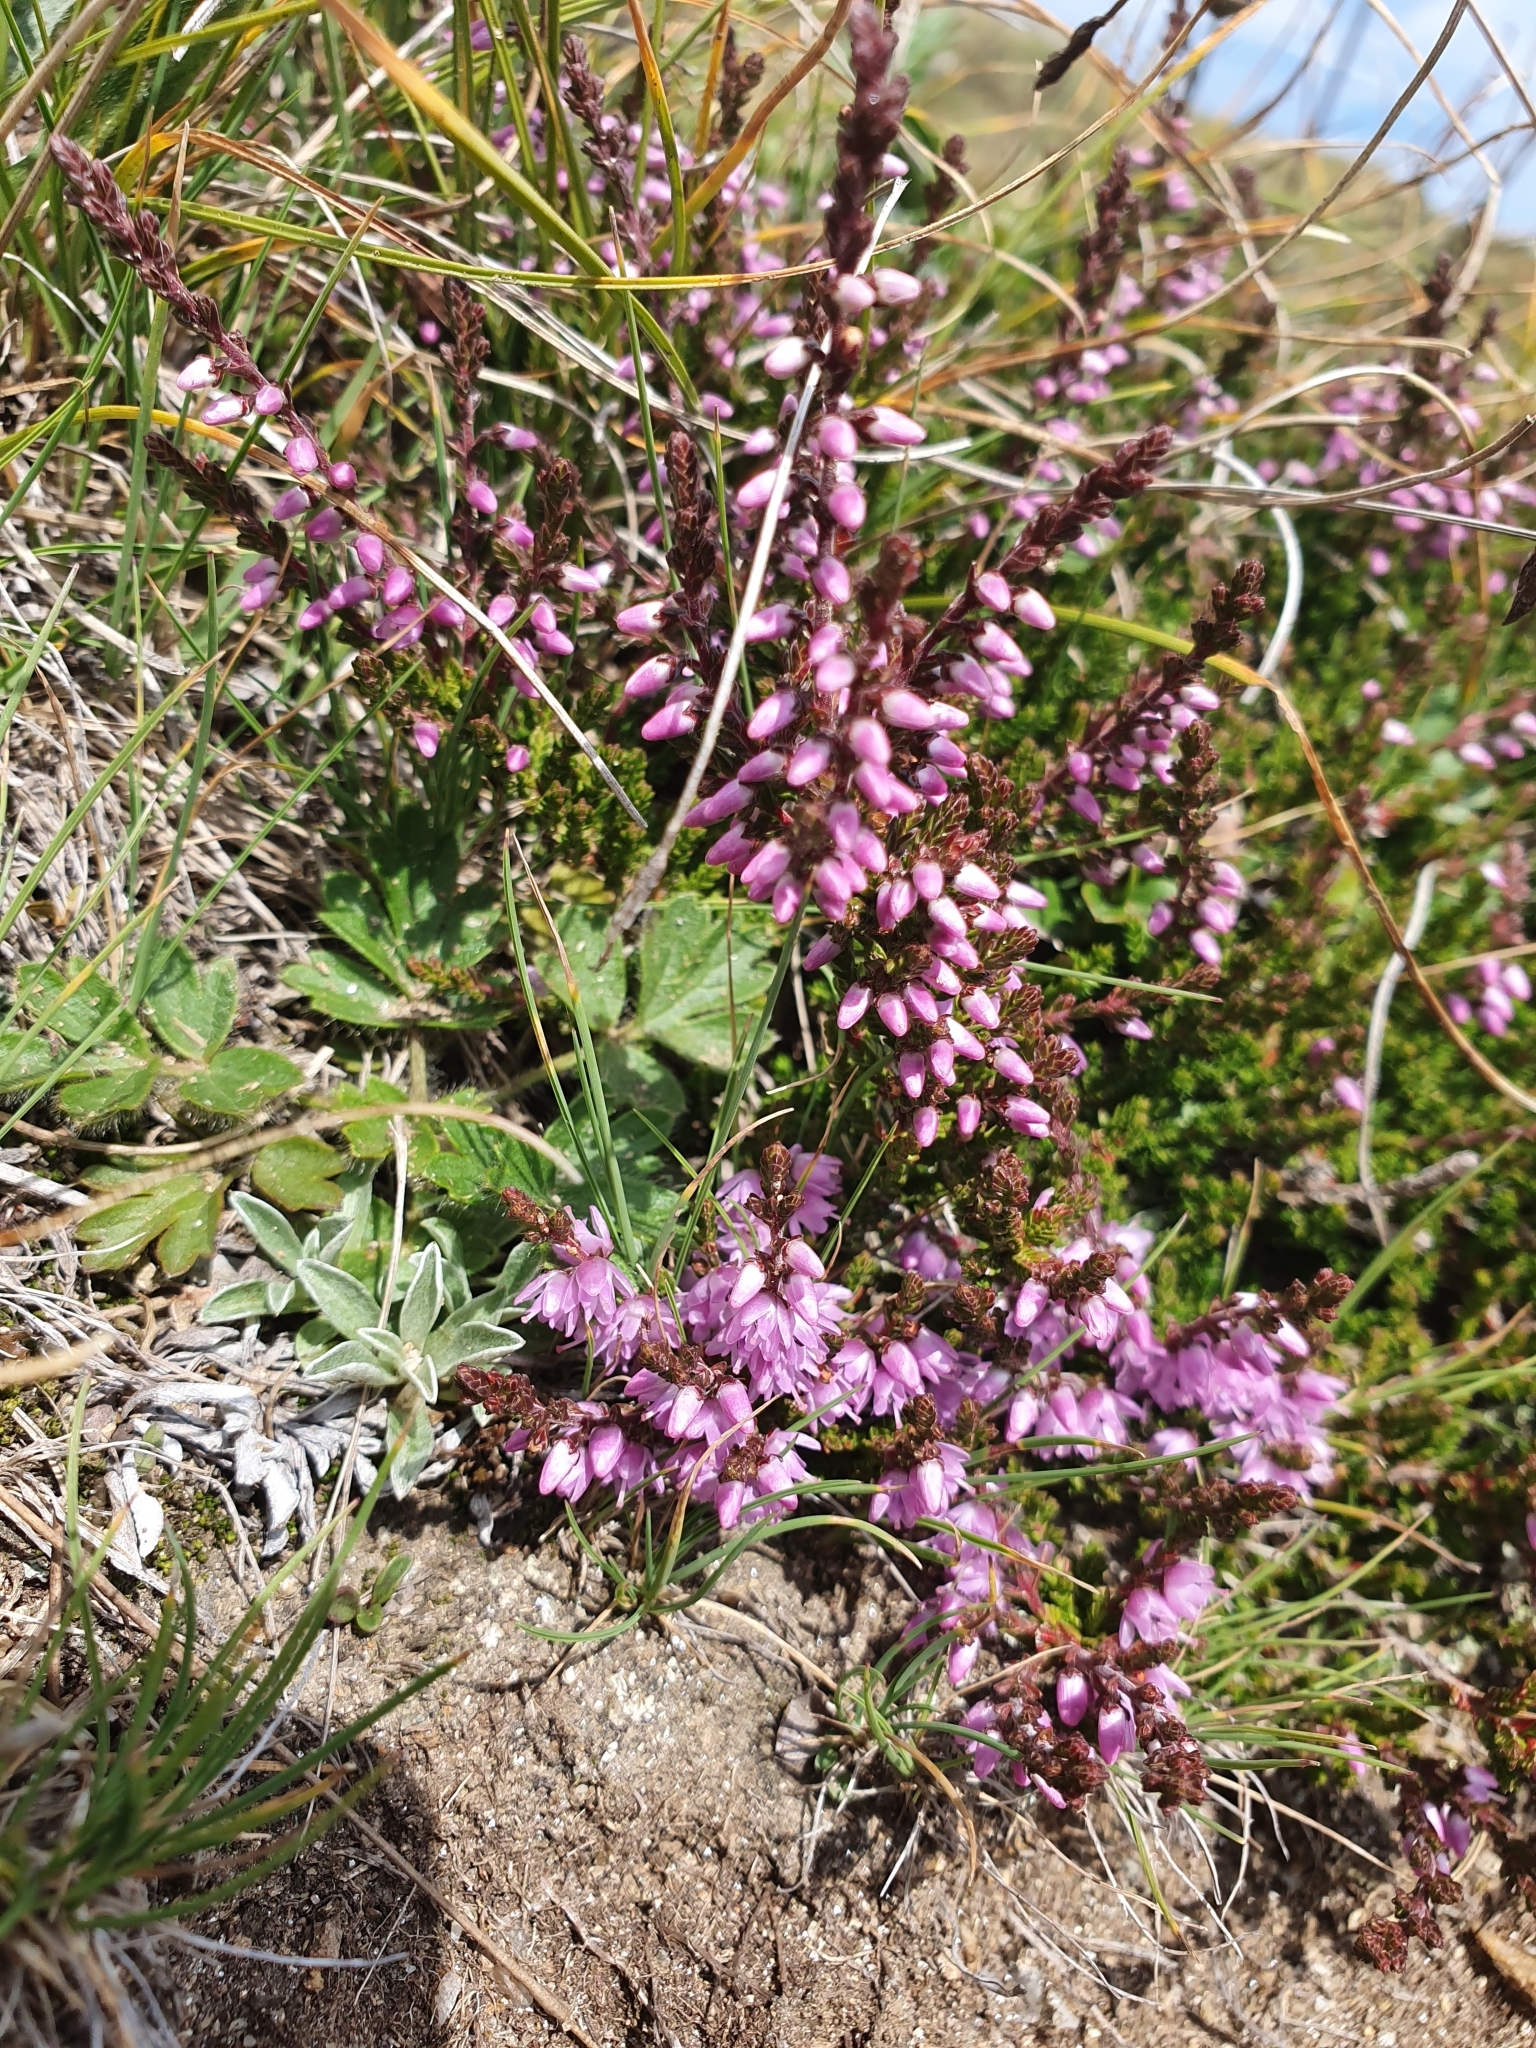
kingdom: Plantae
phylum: Tracheophyta
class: Magnoliopsida
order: Ericales
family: Ericaceae
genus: Calluna
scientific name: Calluna vulgaris
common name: Heather
